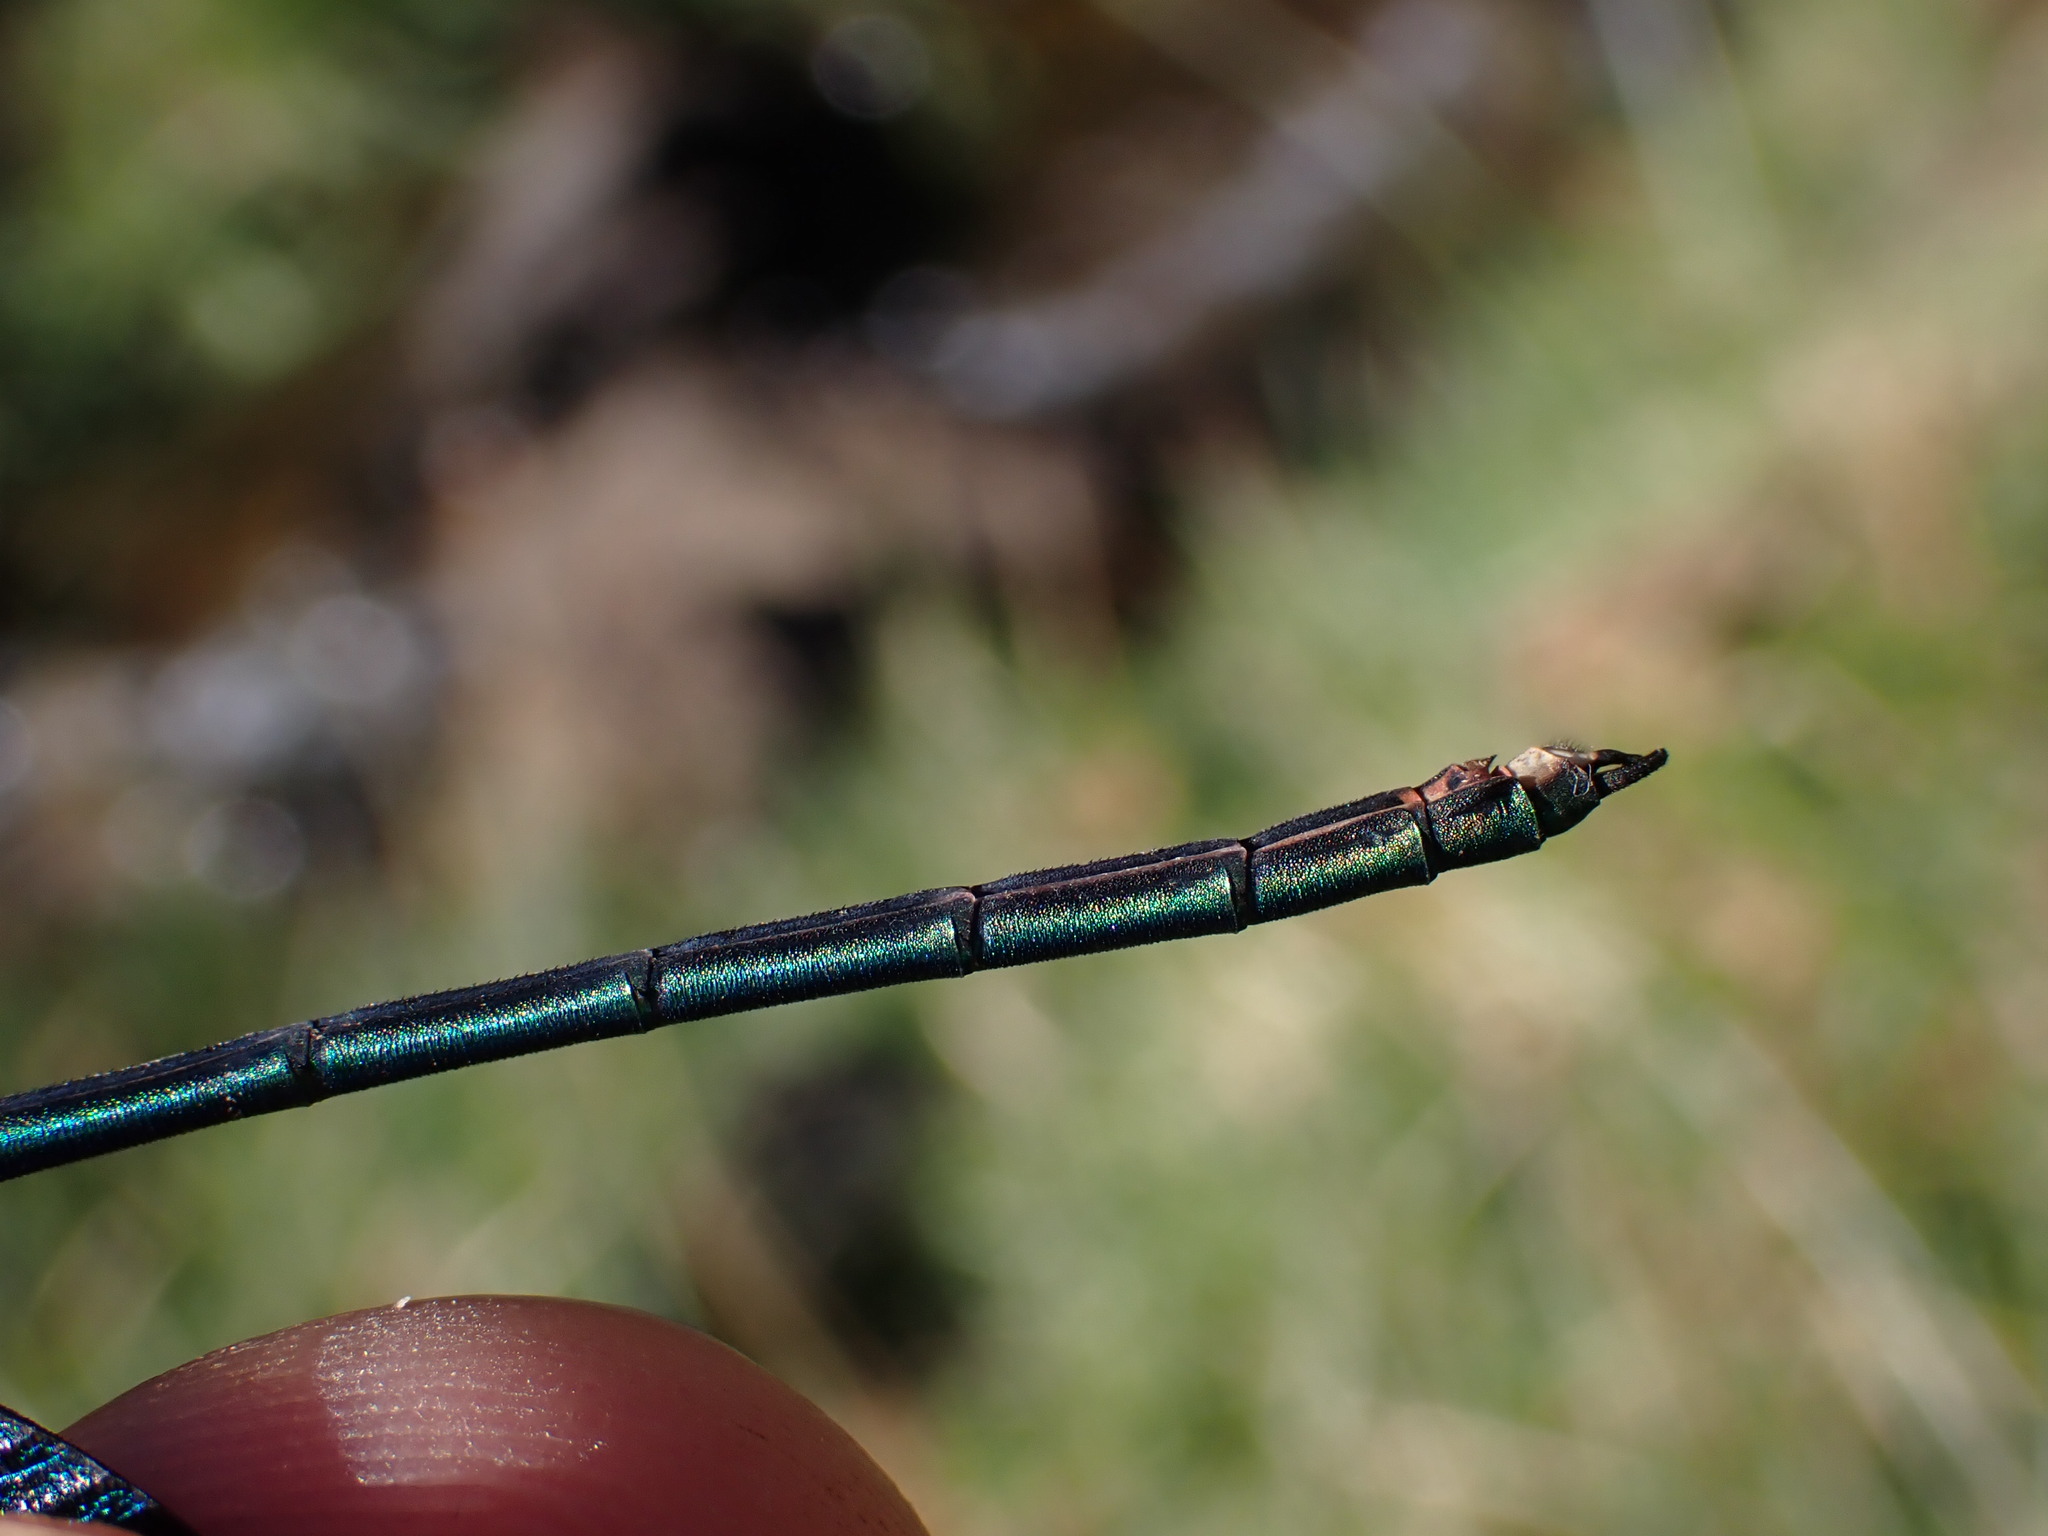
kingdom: Animalia
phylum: Arthropoda
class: Insecta
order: Odonata
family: Calopterygidae
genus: Calopteryx
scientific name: Calopteryx virgo
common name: Beautiful demoiselle
